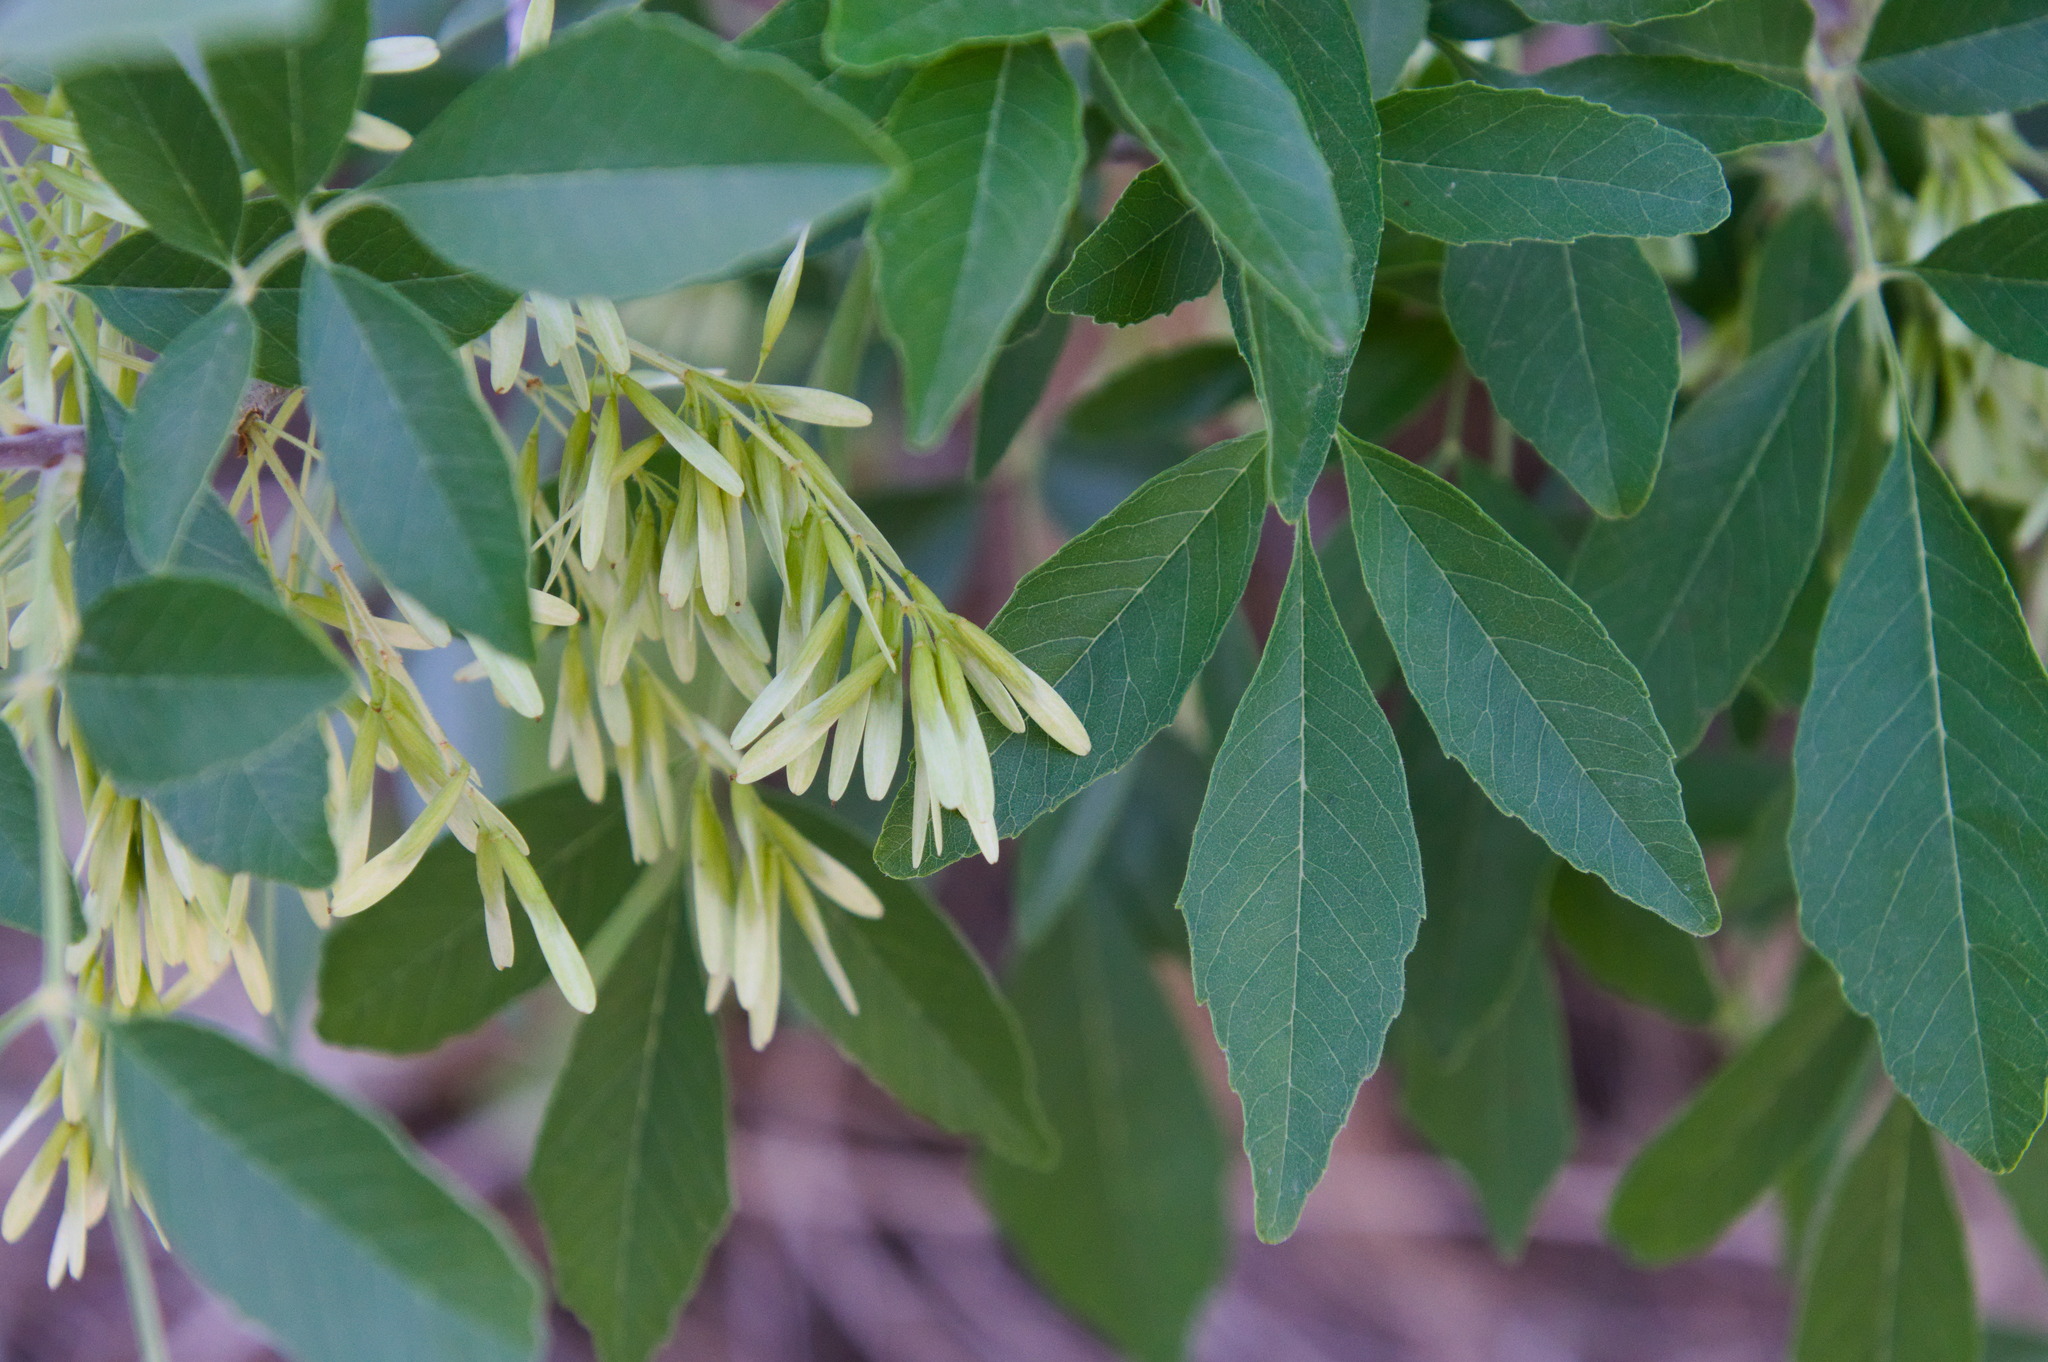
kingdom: Plantae
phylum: Tracheophyta
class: Magnoliopsida
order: Lamiales
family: Oleaceae
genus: Fraxinus
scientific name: Fraxinus velutina
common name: Arizon ash
